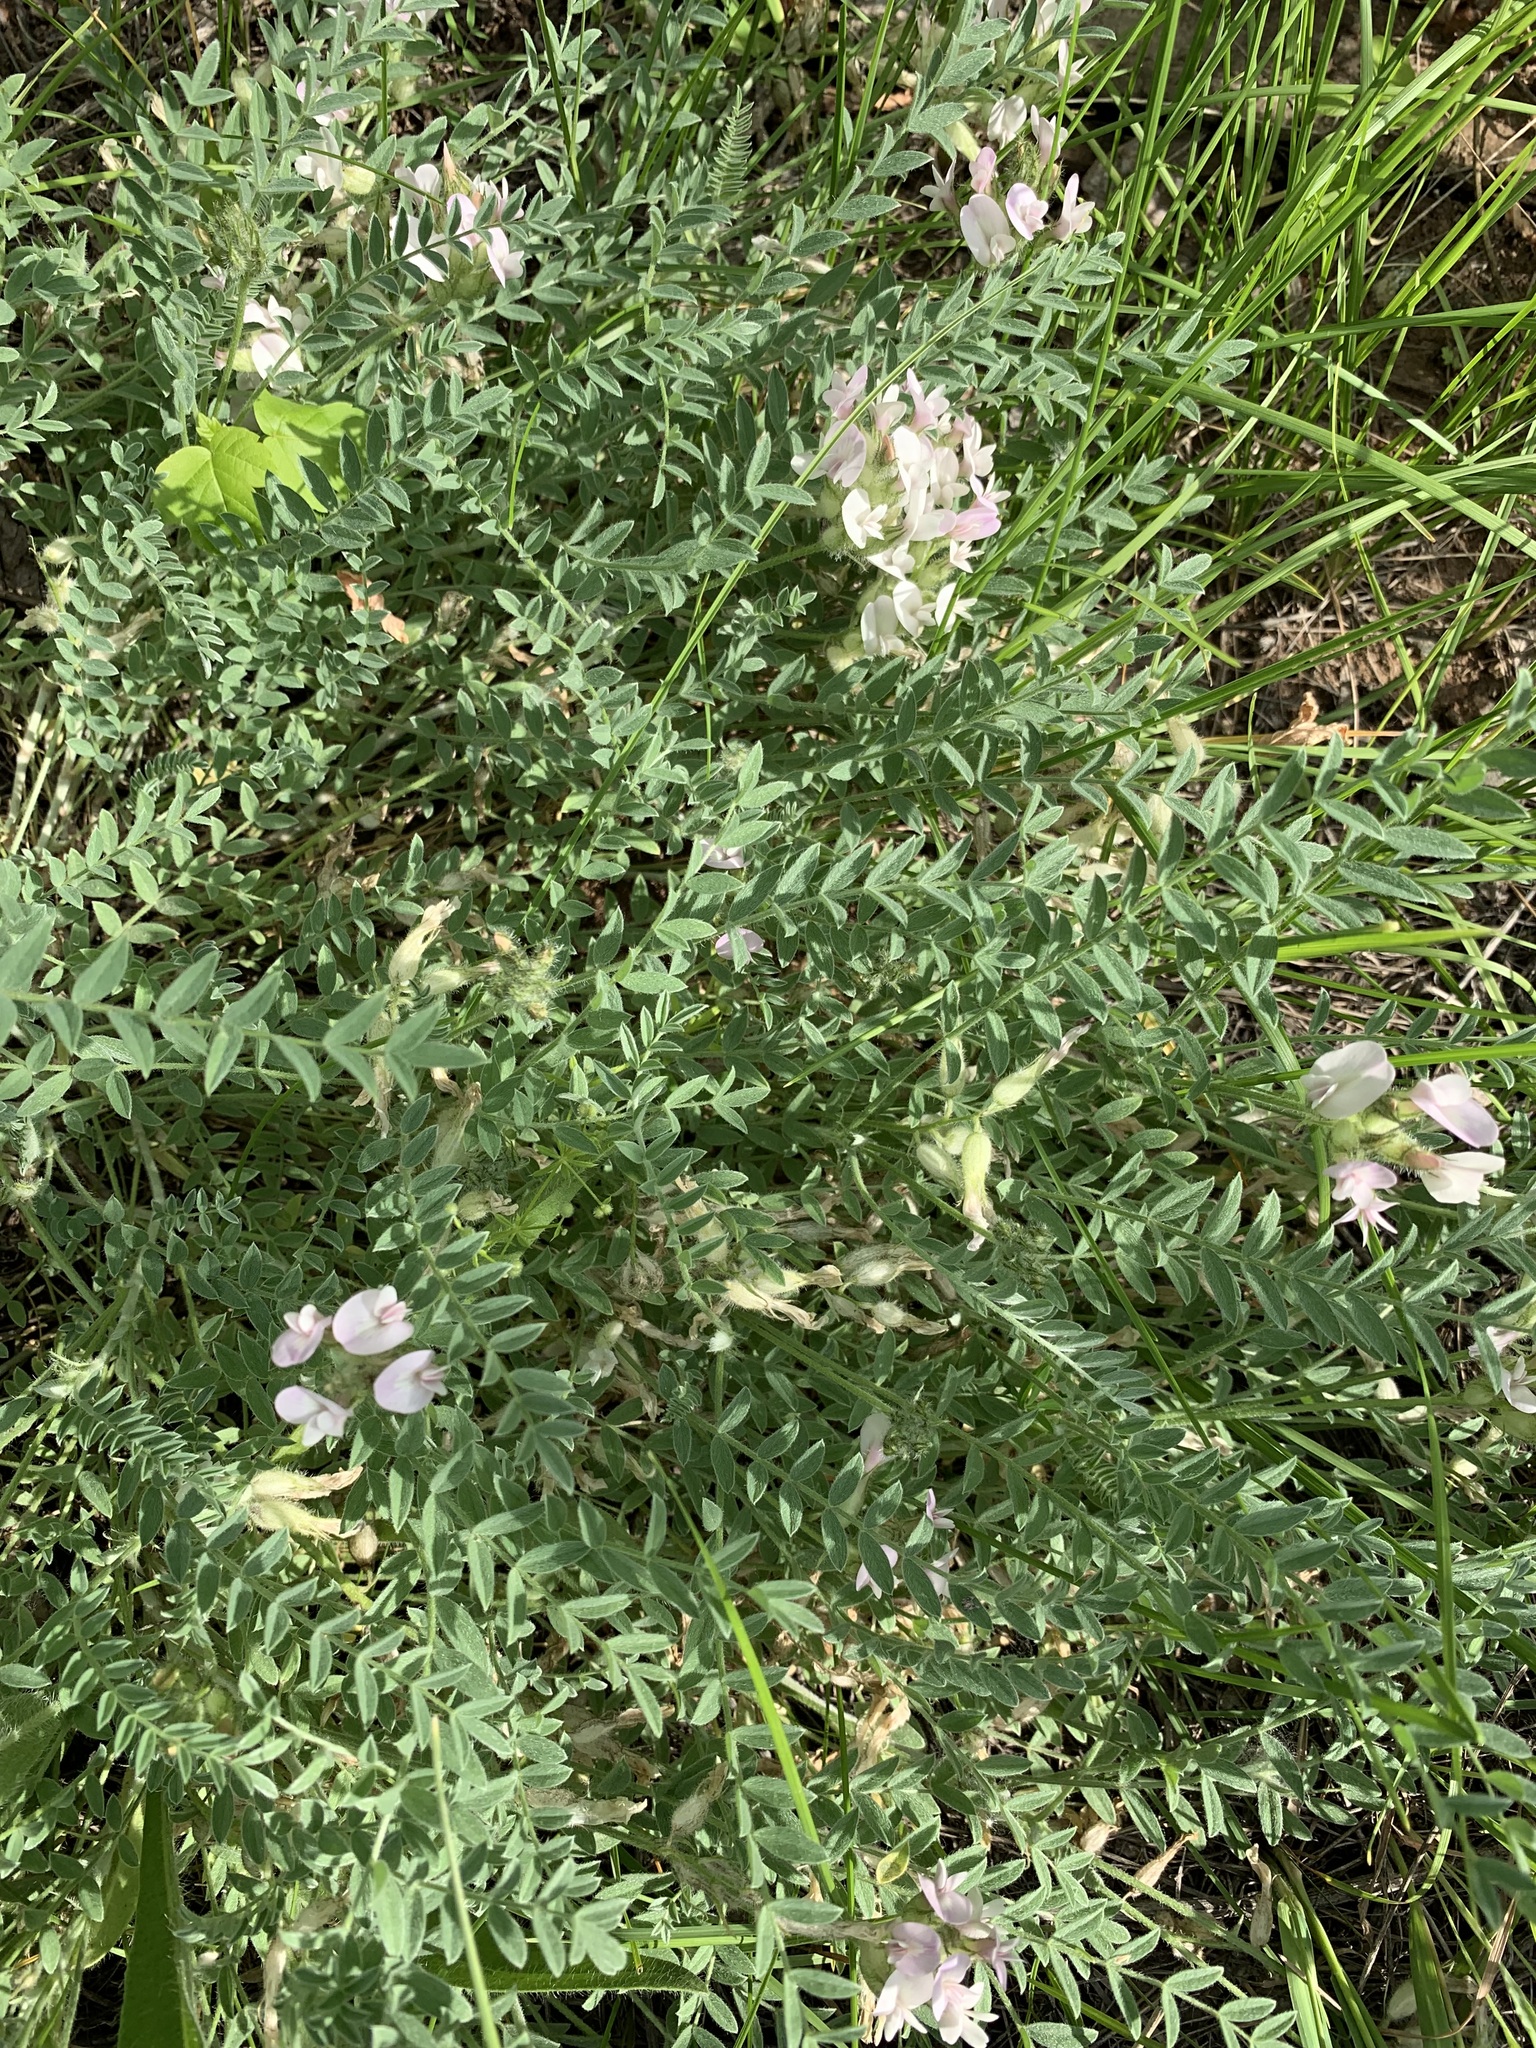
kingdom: Plantae
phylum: Tracheophyta
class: Magnoliopsida
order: Fabales
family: Fabaceae
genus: Astragalus
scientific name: Astragalus rupifragus
